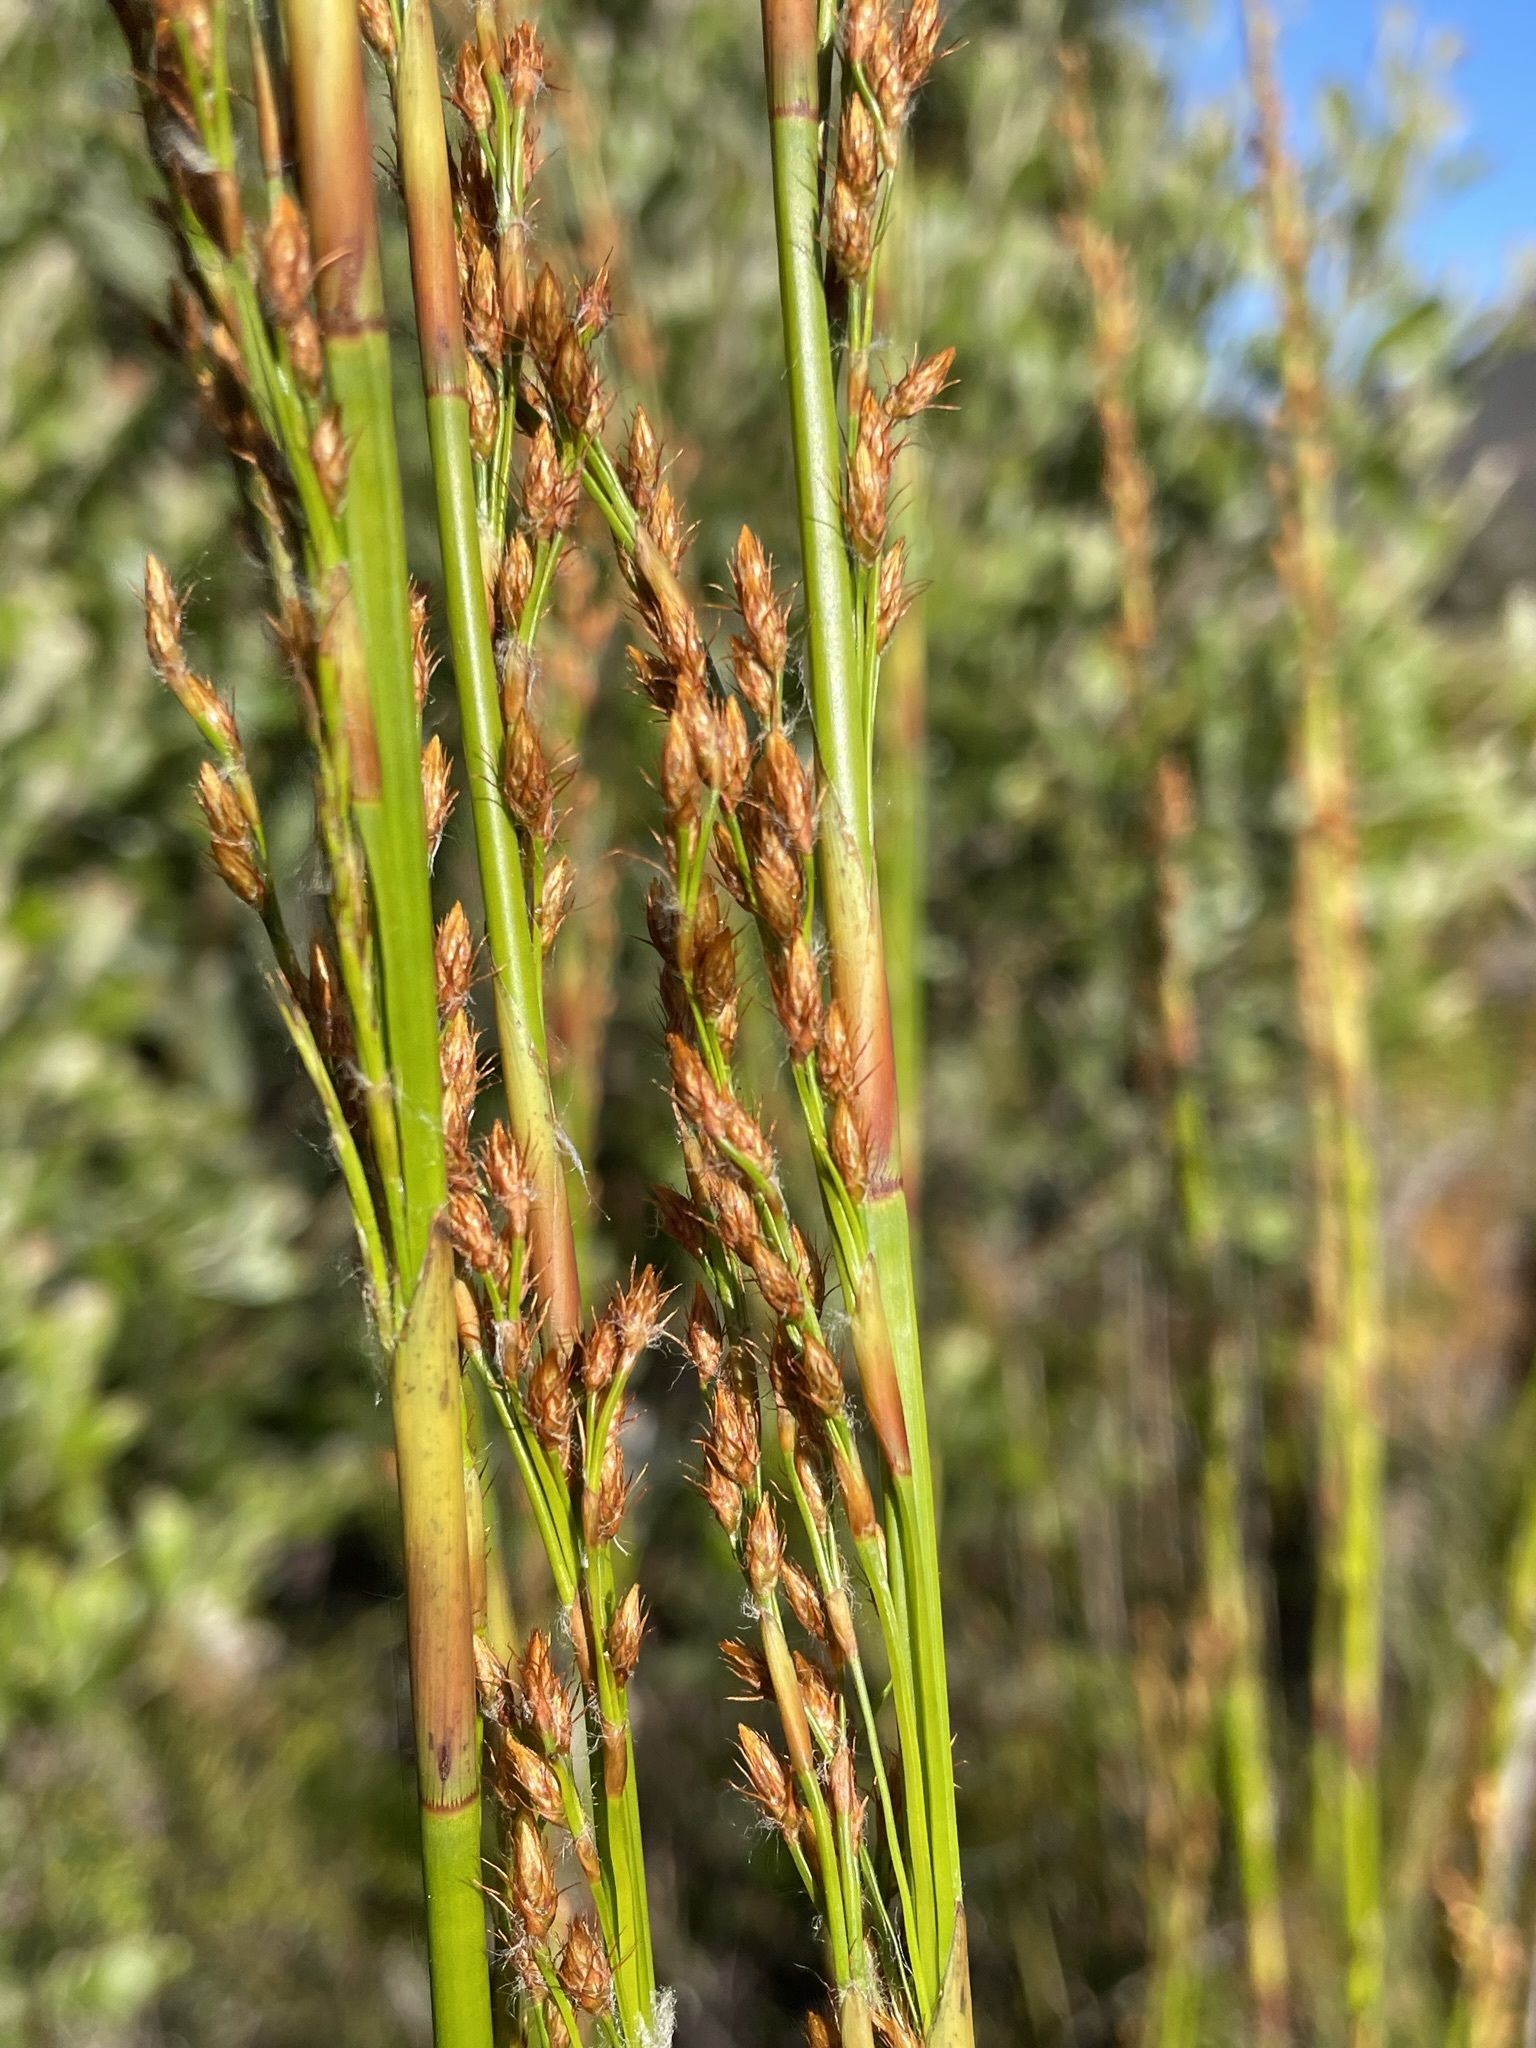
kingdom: Plantae
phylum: Tracheophyta
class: Liliopsida
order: Poales
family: Restionaceae
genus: Baloskion
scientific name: Baloskion tetraphyllum
